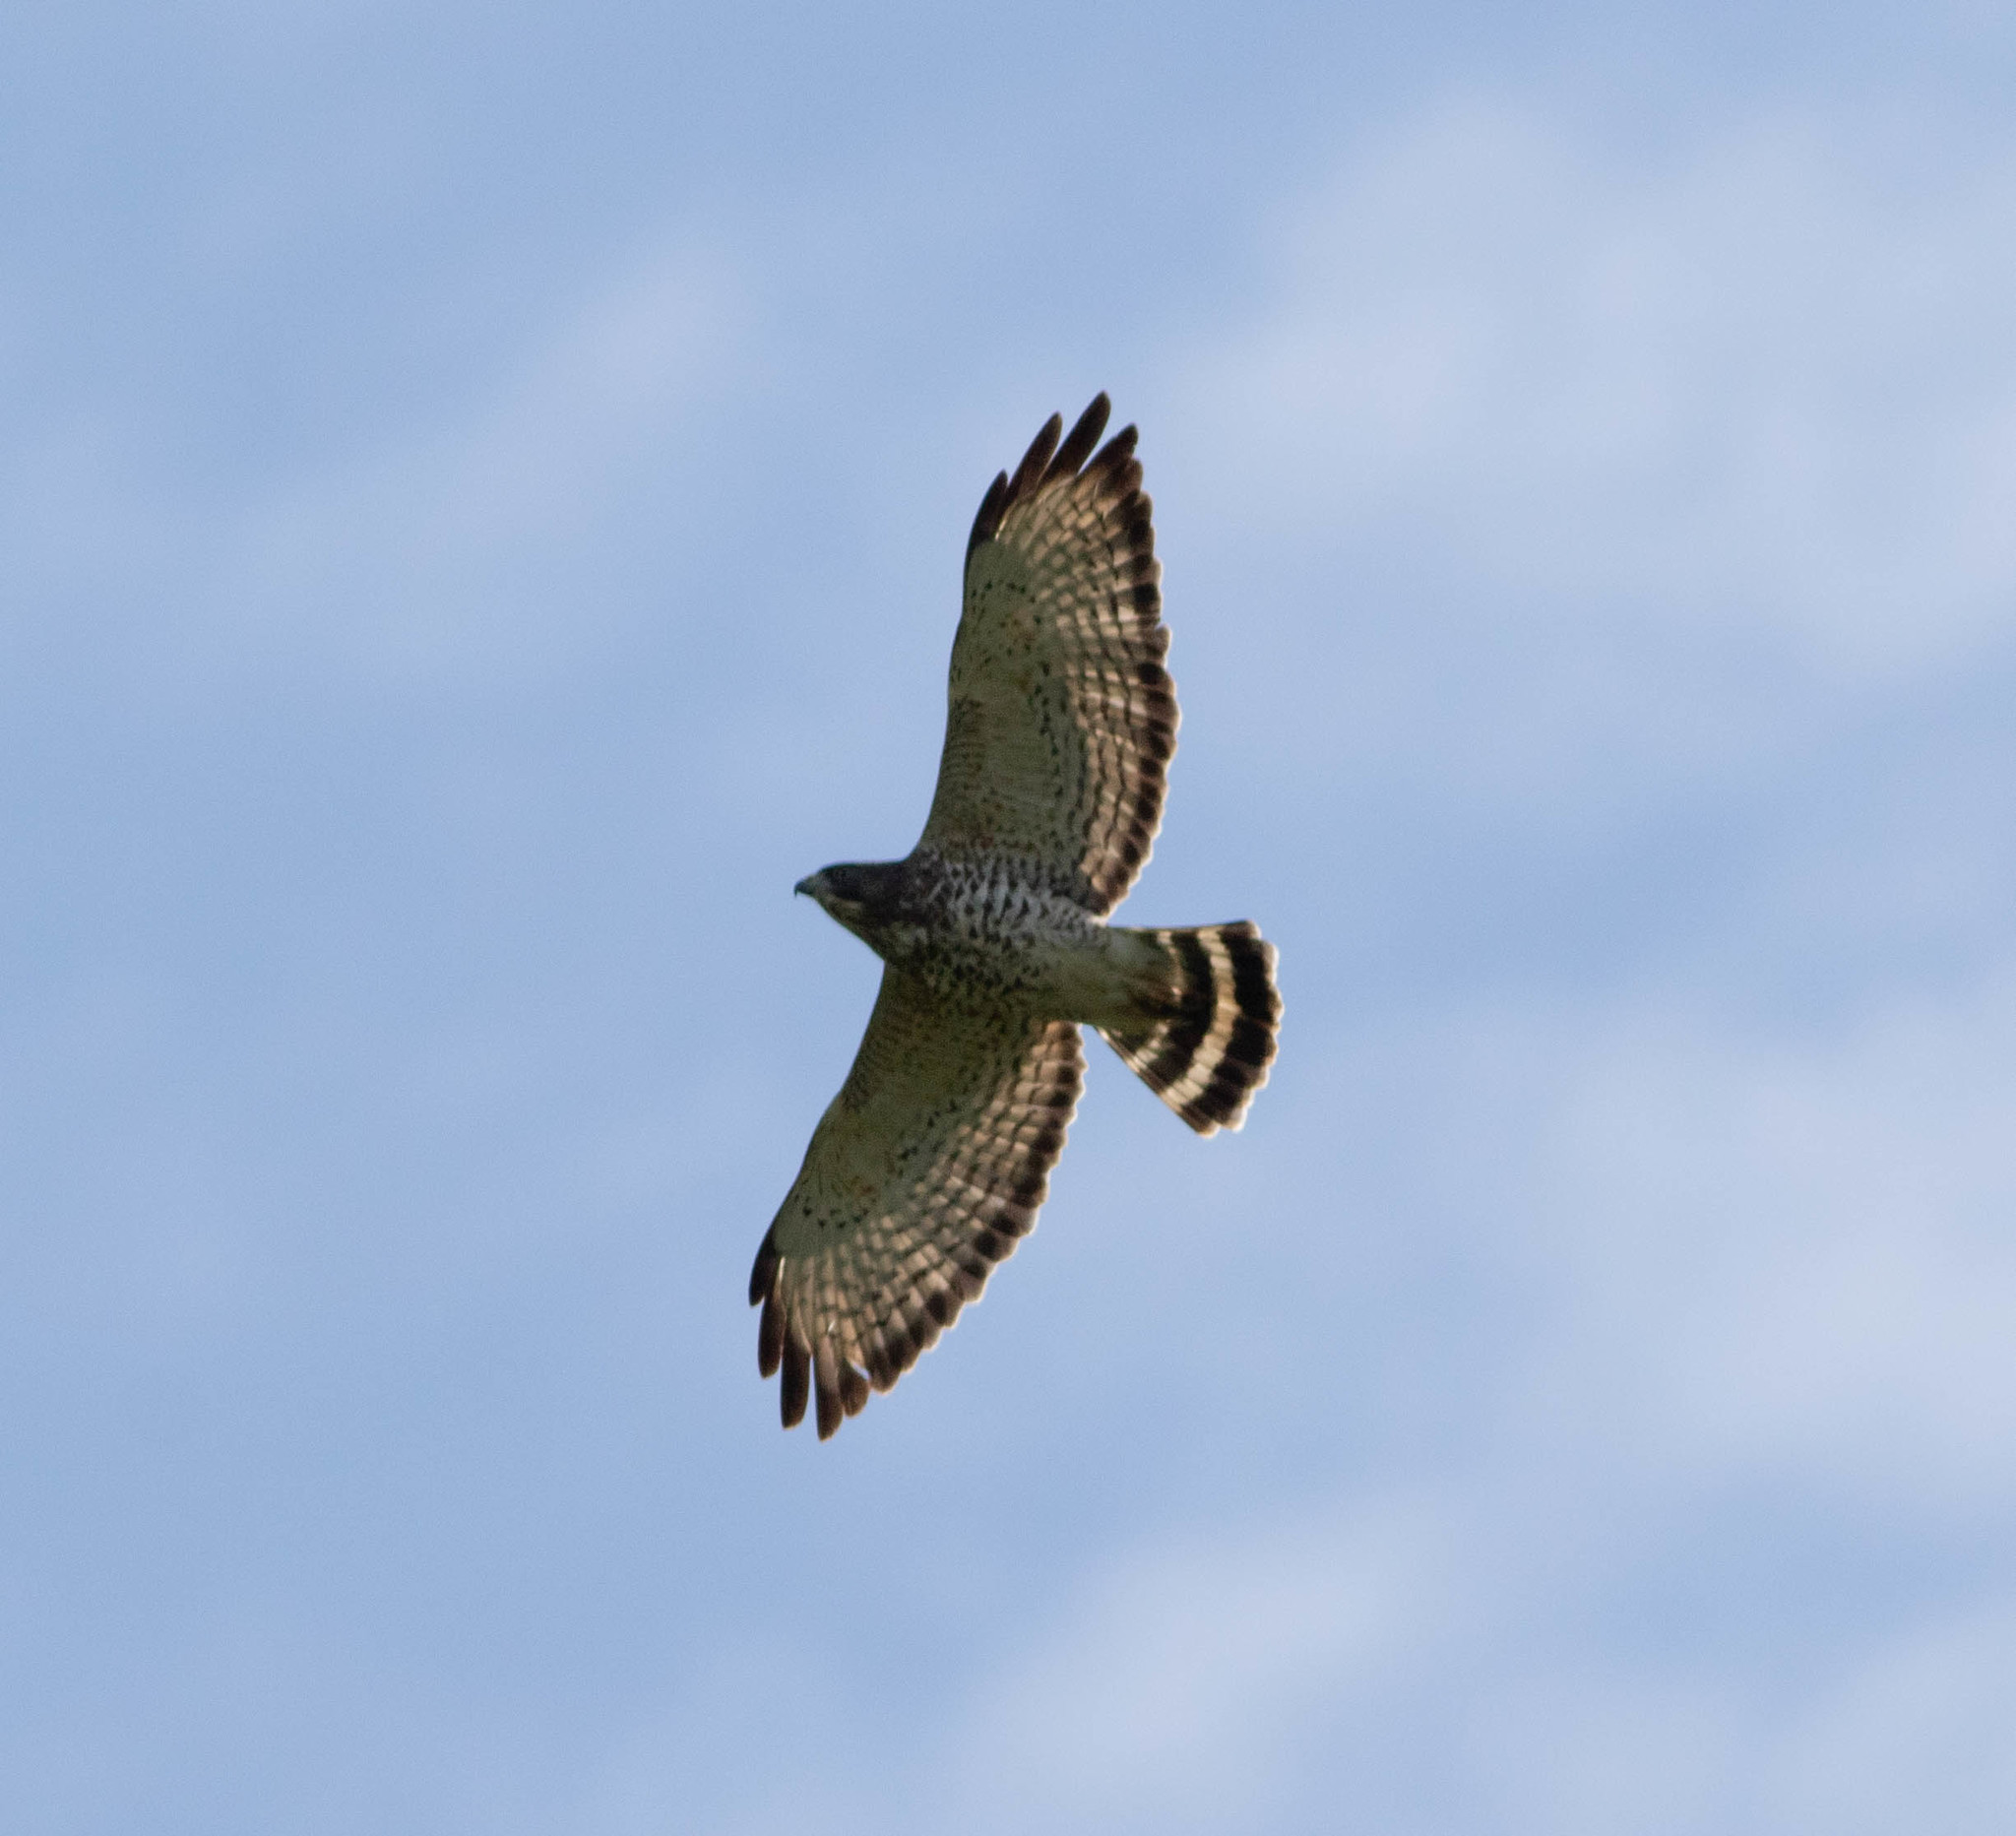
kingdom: Animalia
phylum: Chordata
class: Aves
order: Accipitriformes
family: Accipitridae
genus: Buteo
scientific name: Buteo platypterus
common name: Broad-winged hawk
